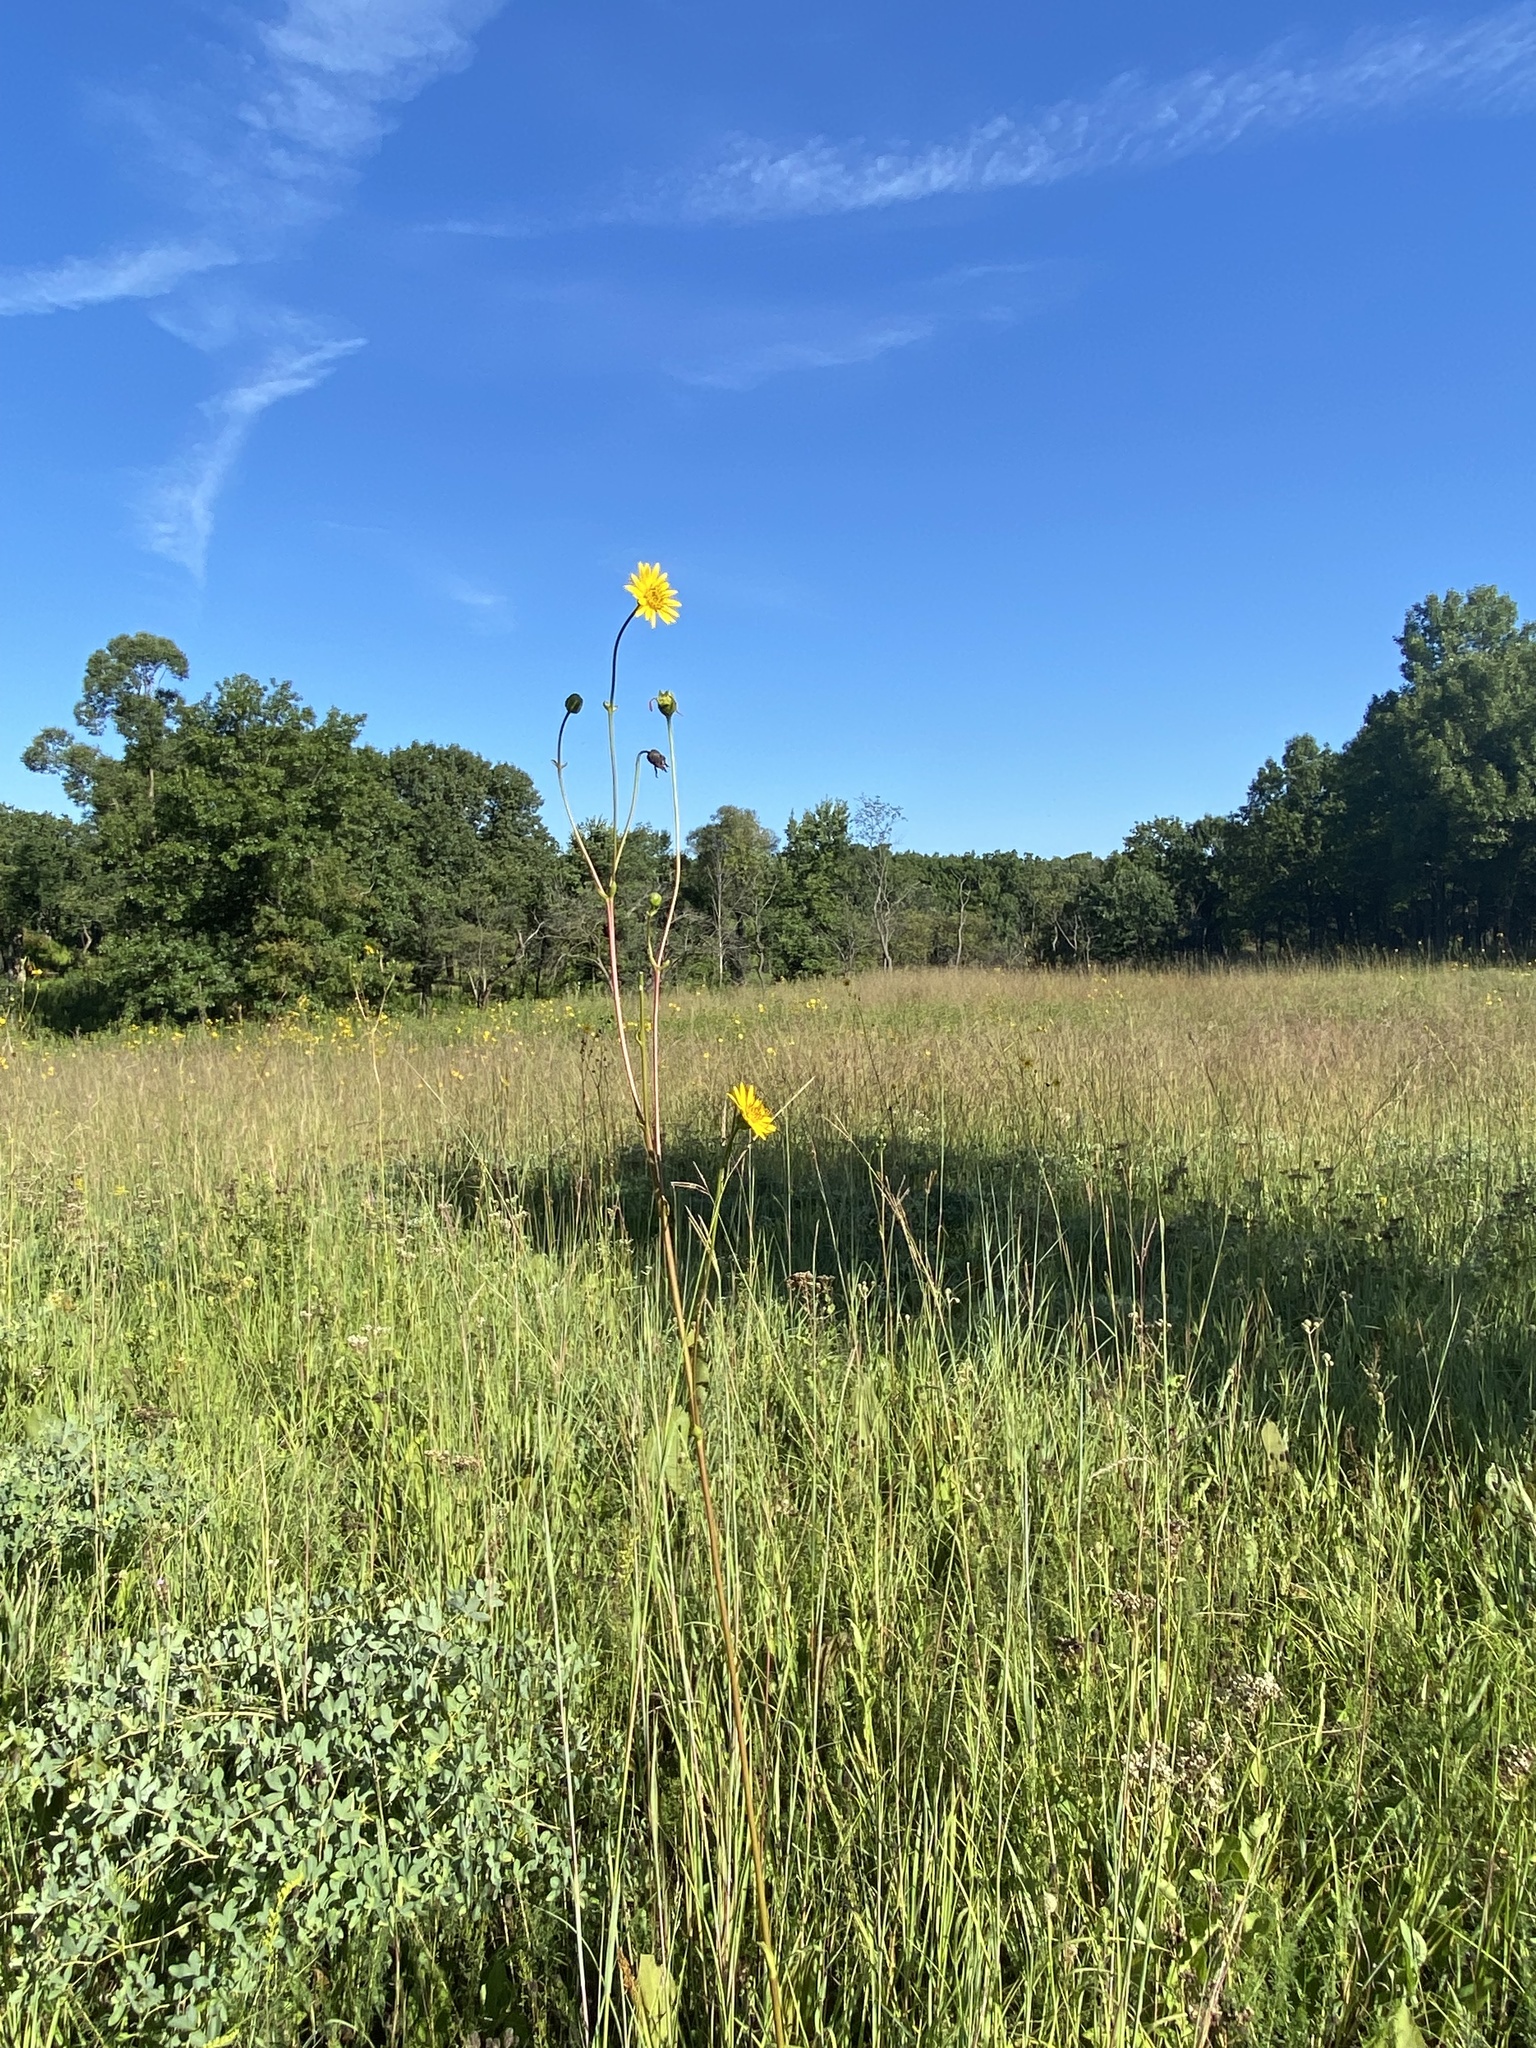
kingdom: Plantae
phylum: Tracheophyta
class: Magnoliopsida
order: Asterales
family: Asteraceae
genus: Silphium
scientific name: Silphium terebinthinaceum
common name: Basal-leaf rosinweed
